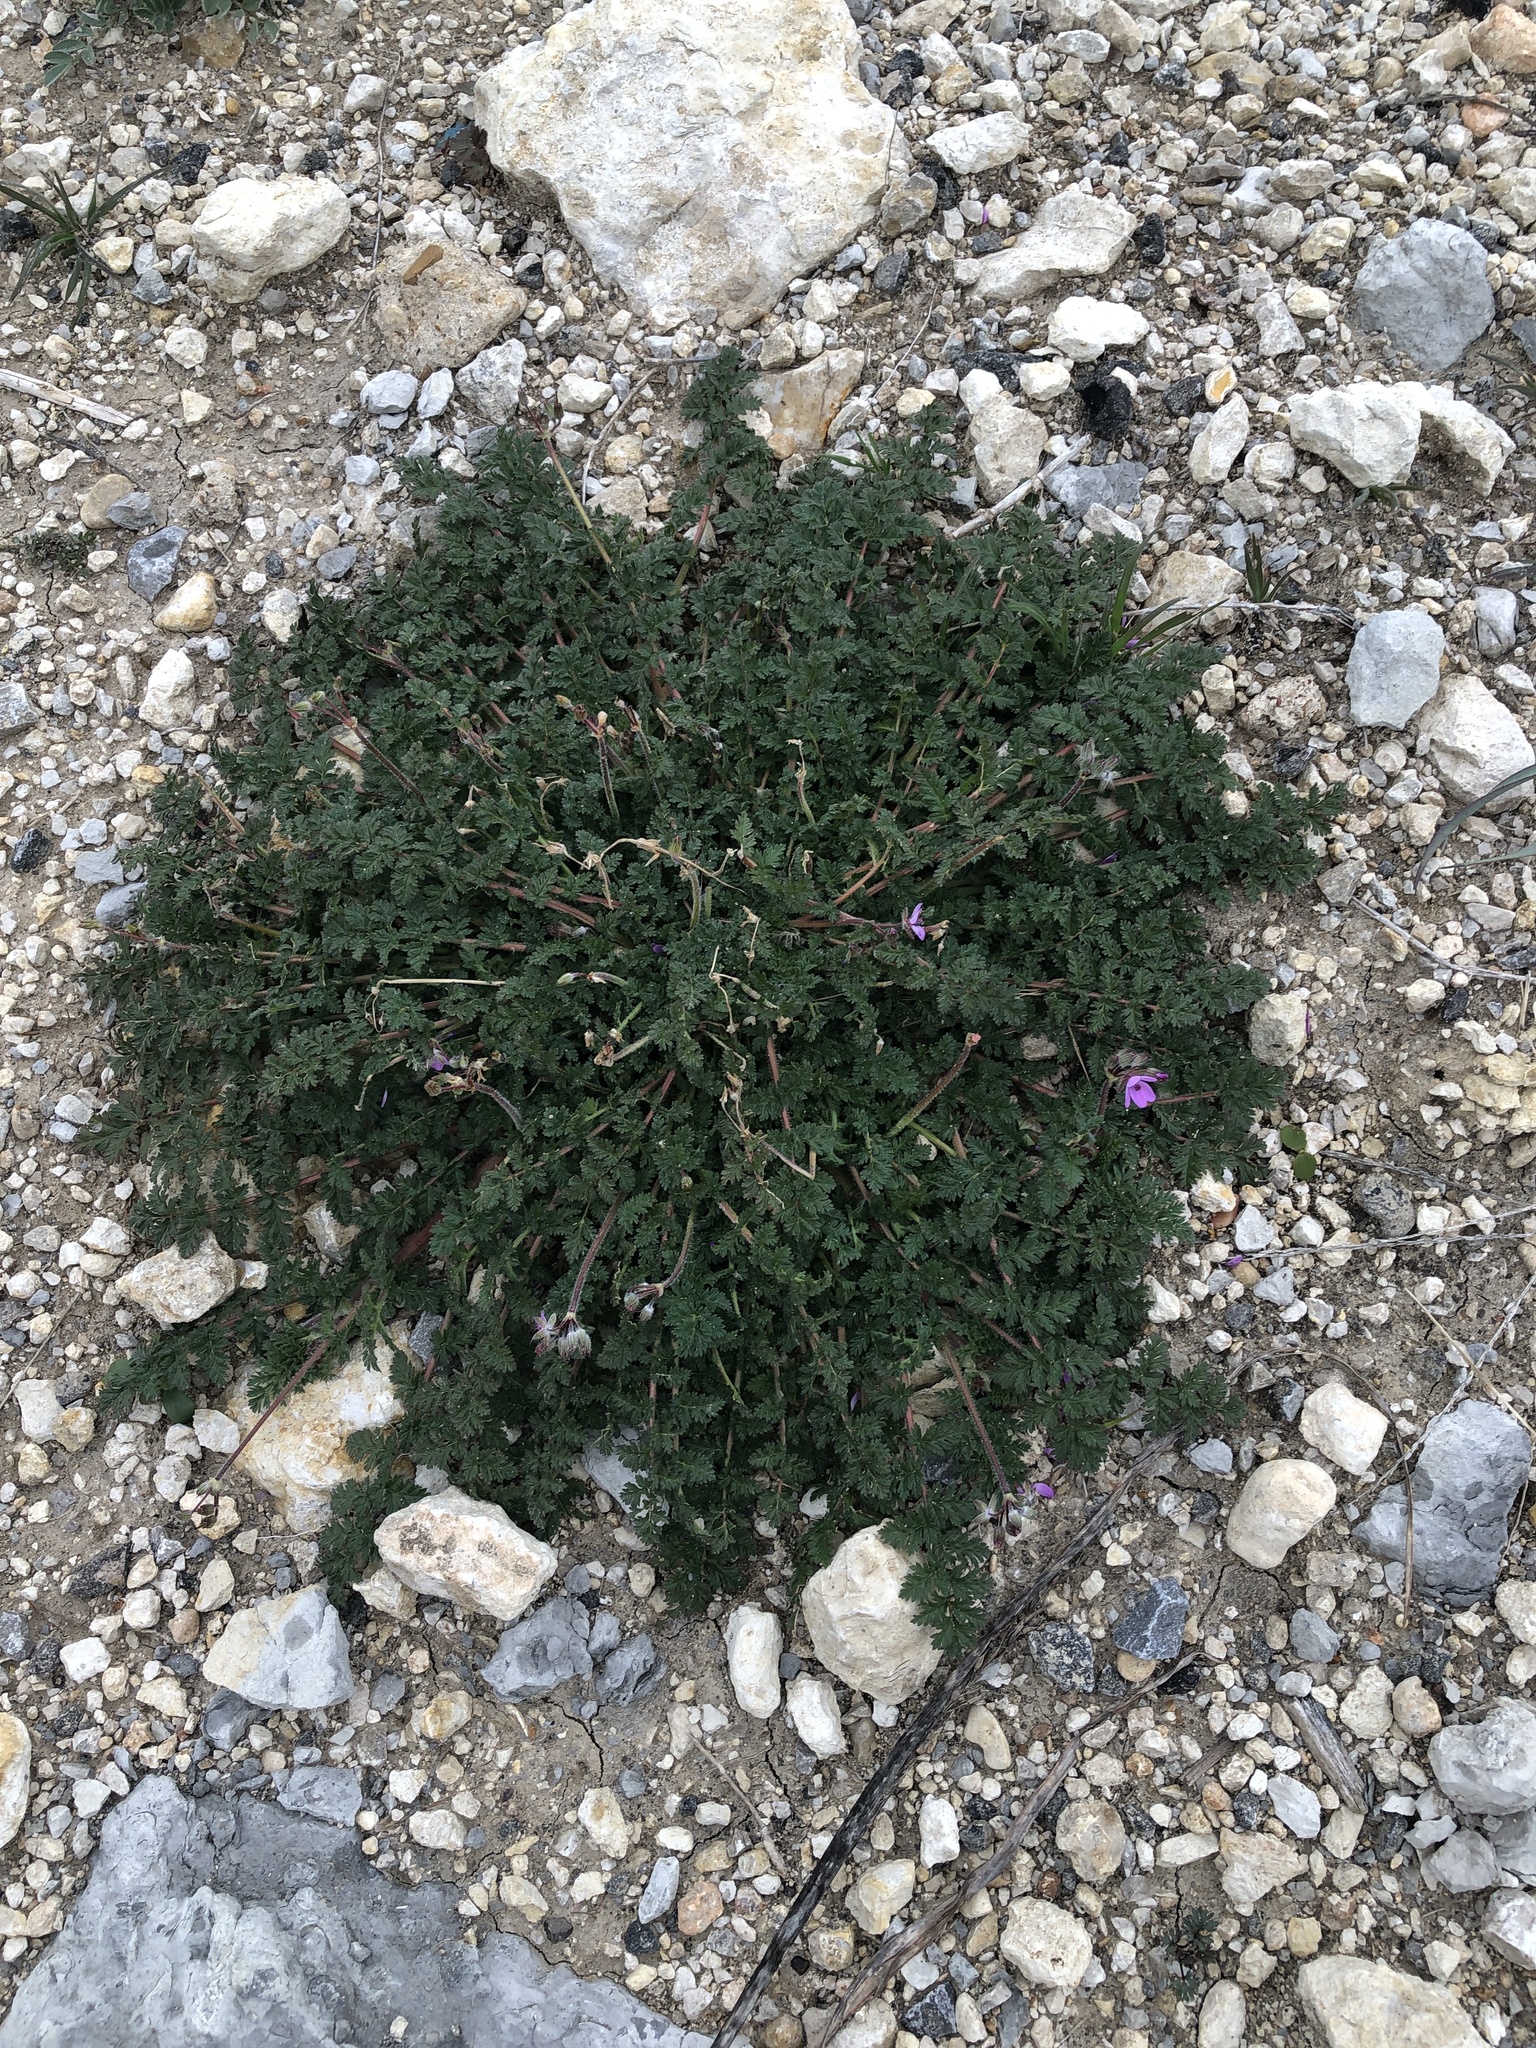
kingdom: Plantae
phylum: Tracheophyta
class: Magnoliopsida
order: Geraniales
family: Geraniaceae
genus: Erodium
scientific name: Erodium cicutarium
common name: Common stork's-bill
